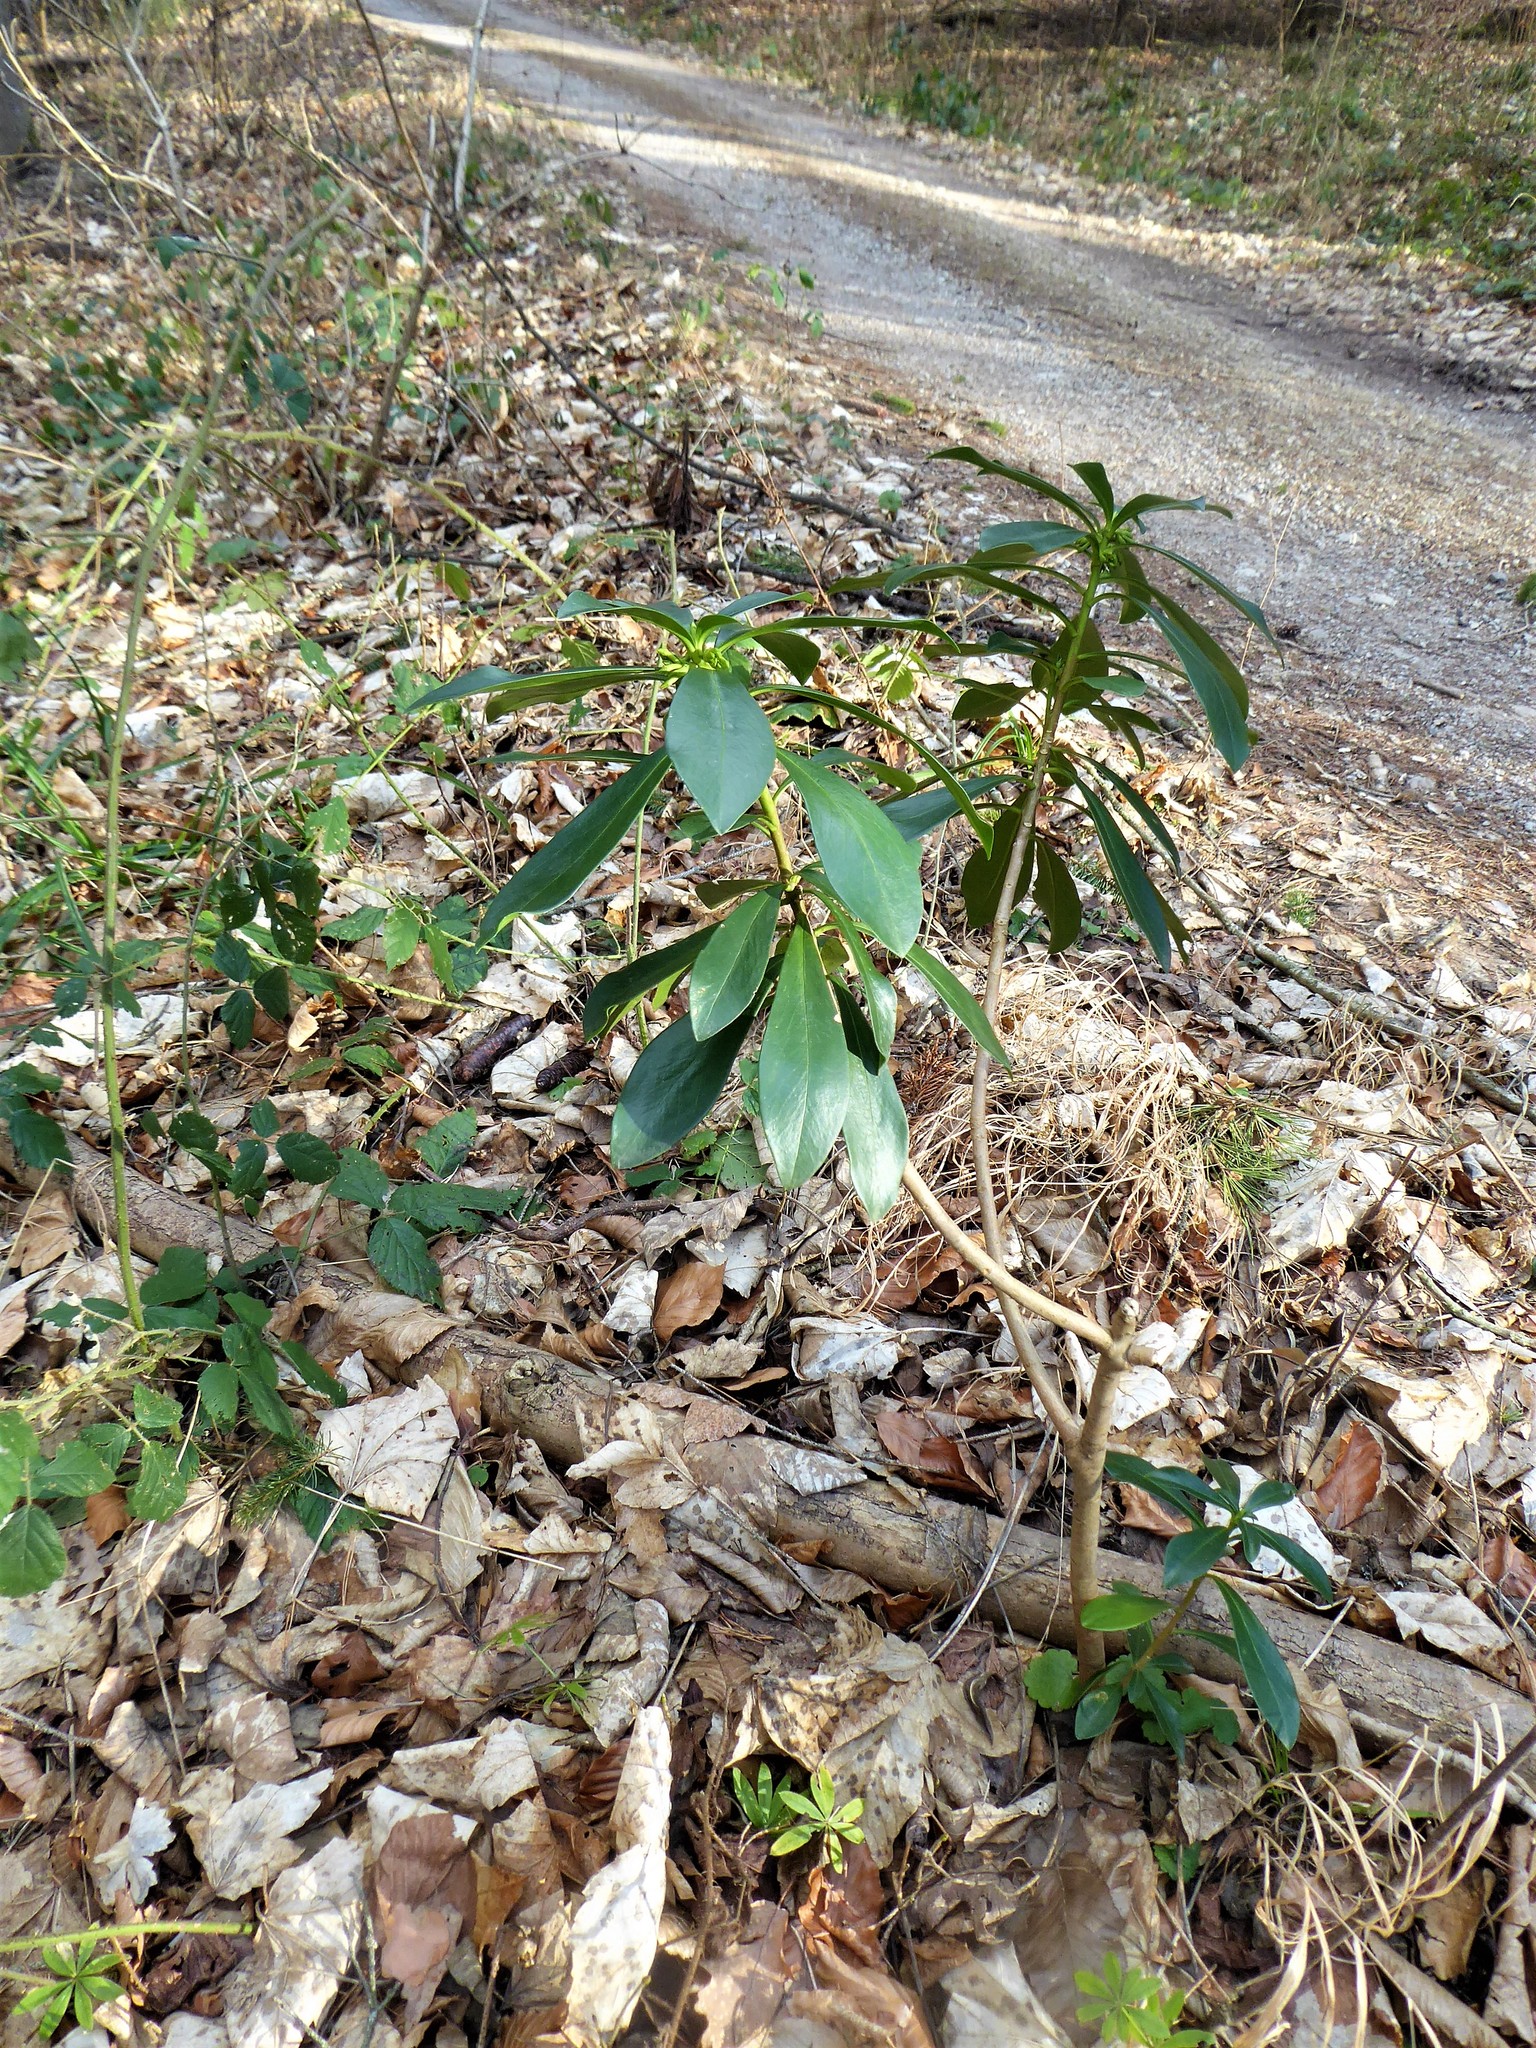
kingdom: Plantae
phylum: Tracheophyta
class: Magnoliopsida
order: Malvales
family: Thymelaeaceae
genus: Daphne
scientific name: Daphne laureola
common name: Spurge-laurel
